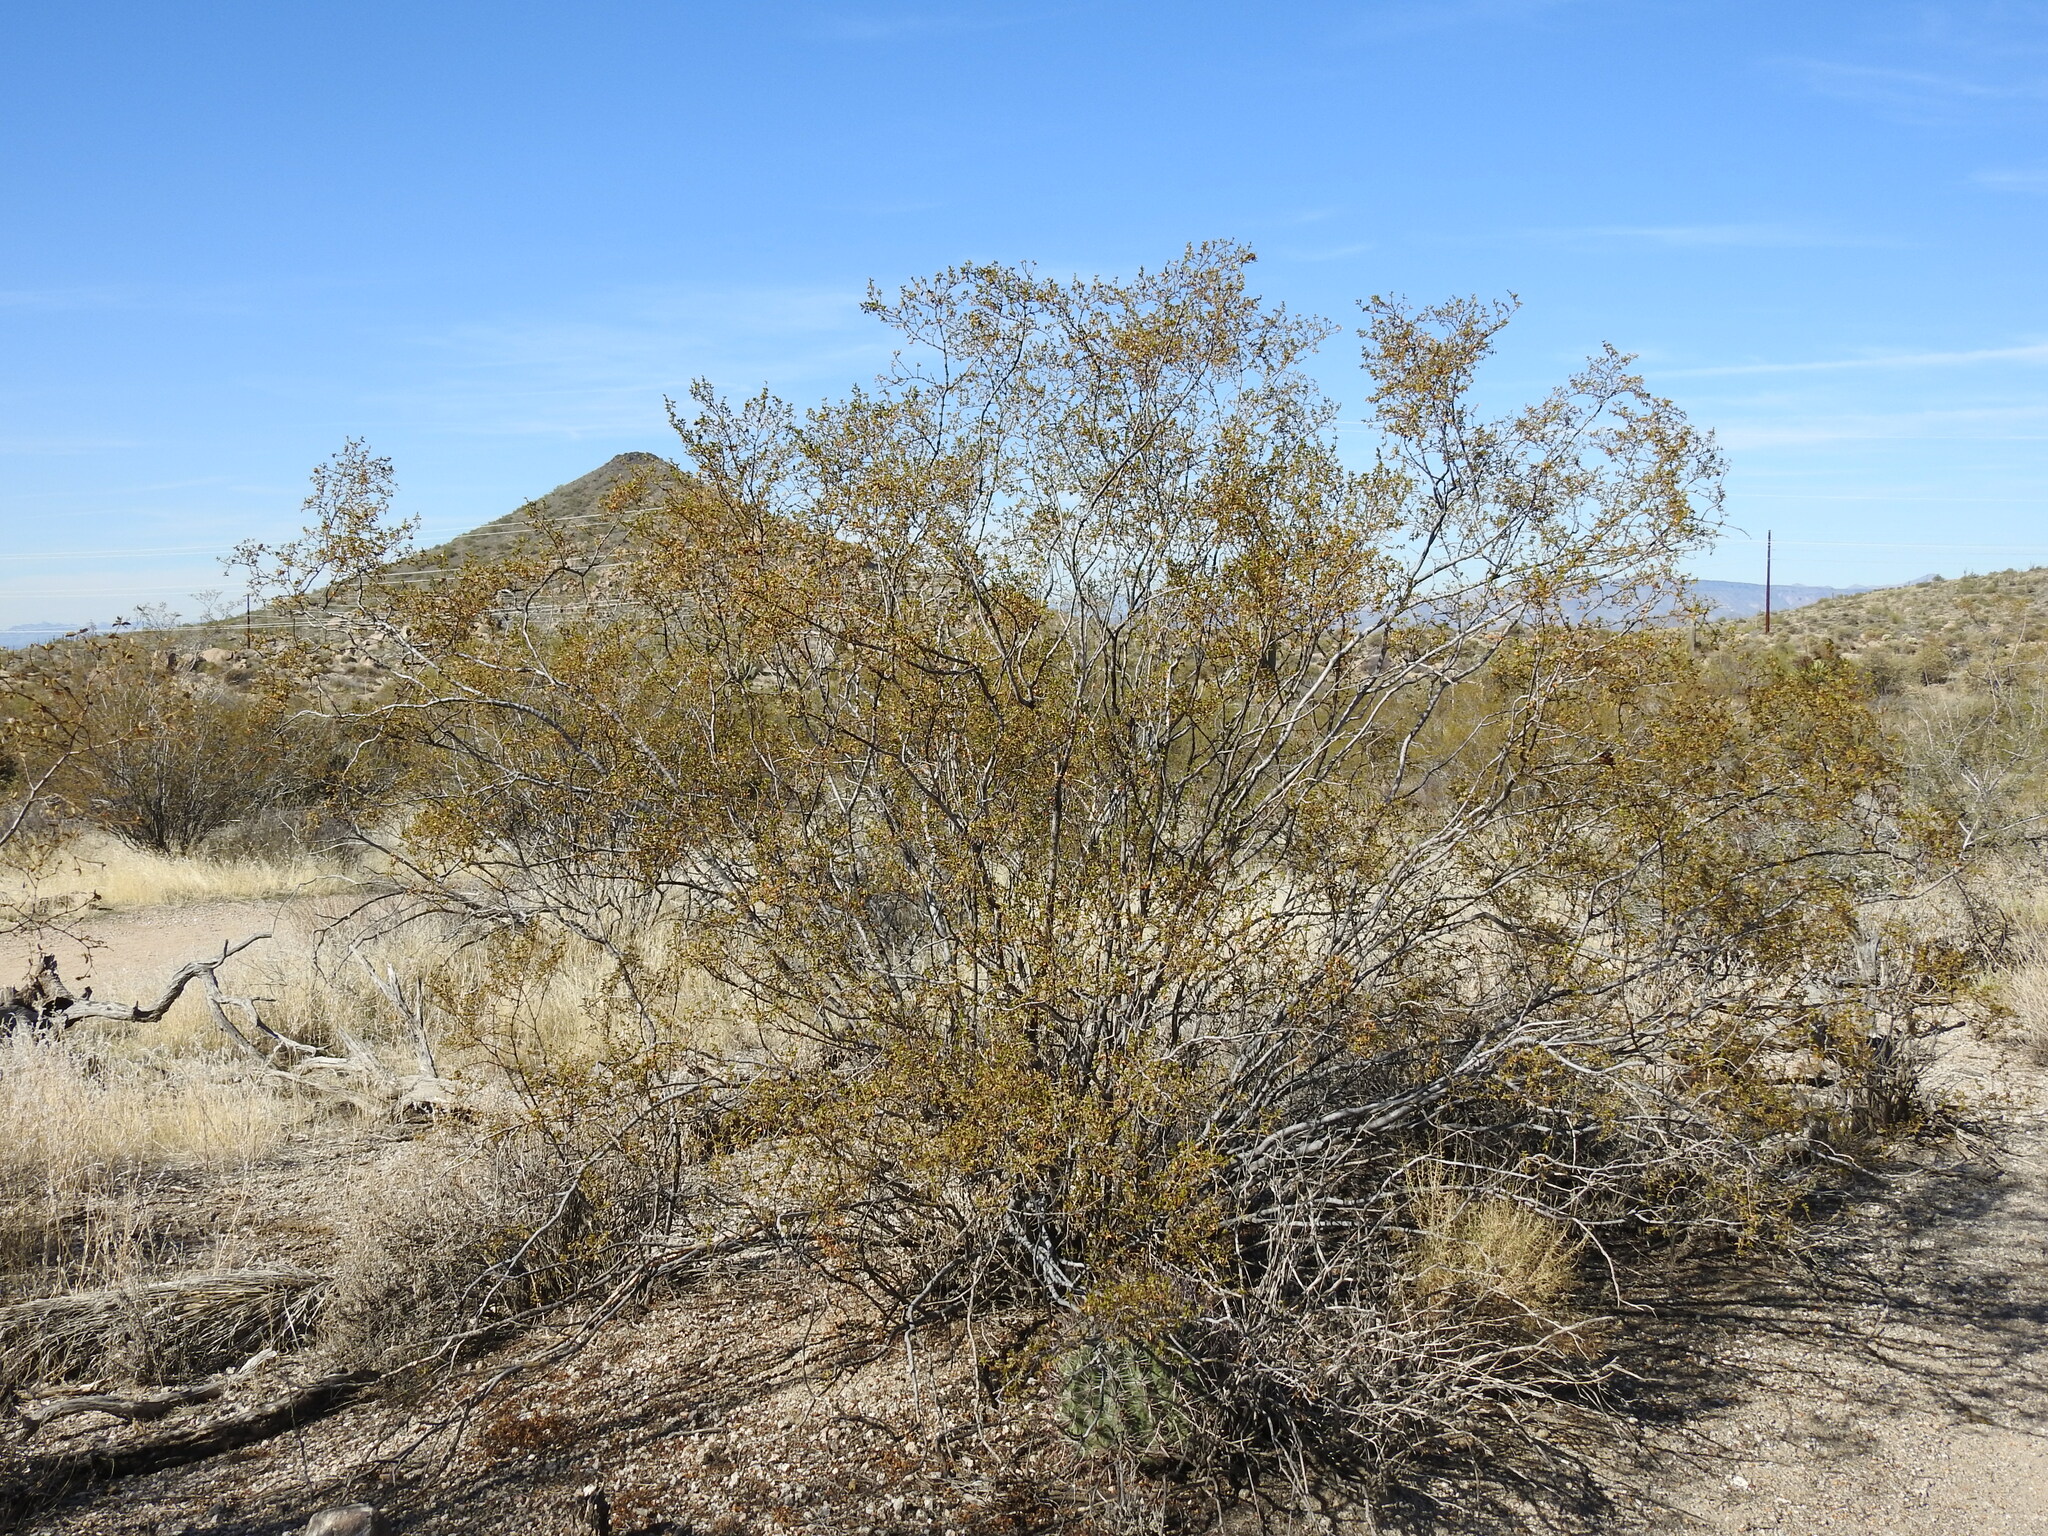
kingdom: Plantae
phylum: Tracheophyta
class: Magnoliopsida
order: Zygophyllales
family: Zygophyllaceae
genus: Larrea
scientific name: Larrea tridentata
